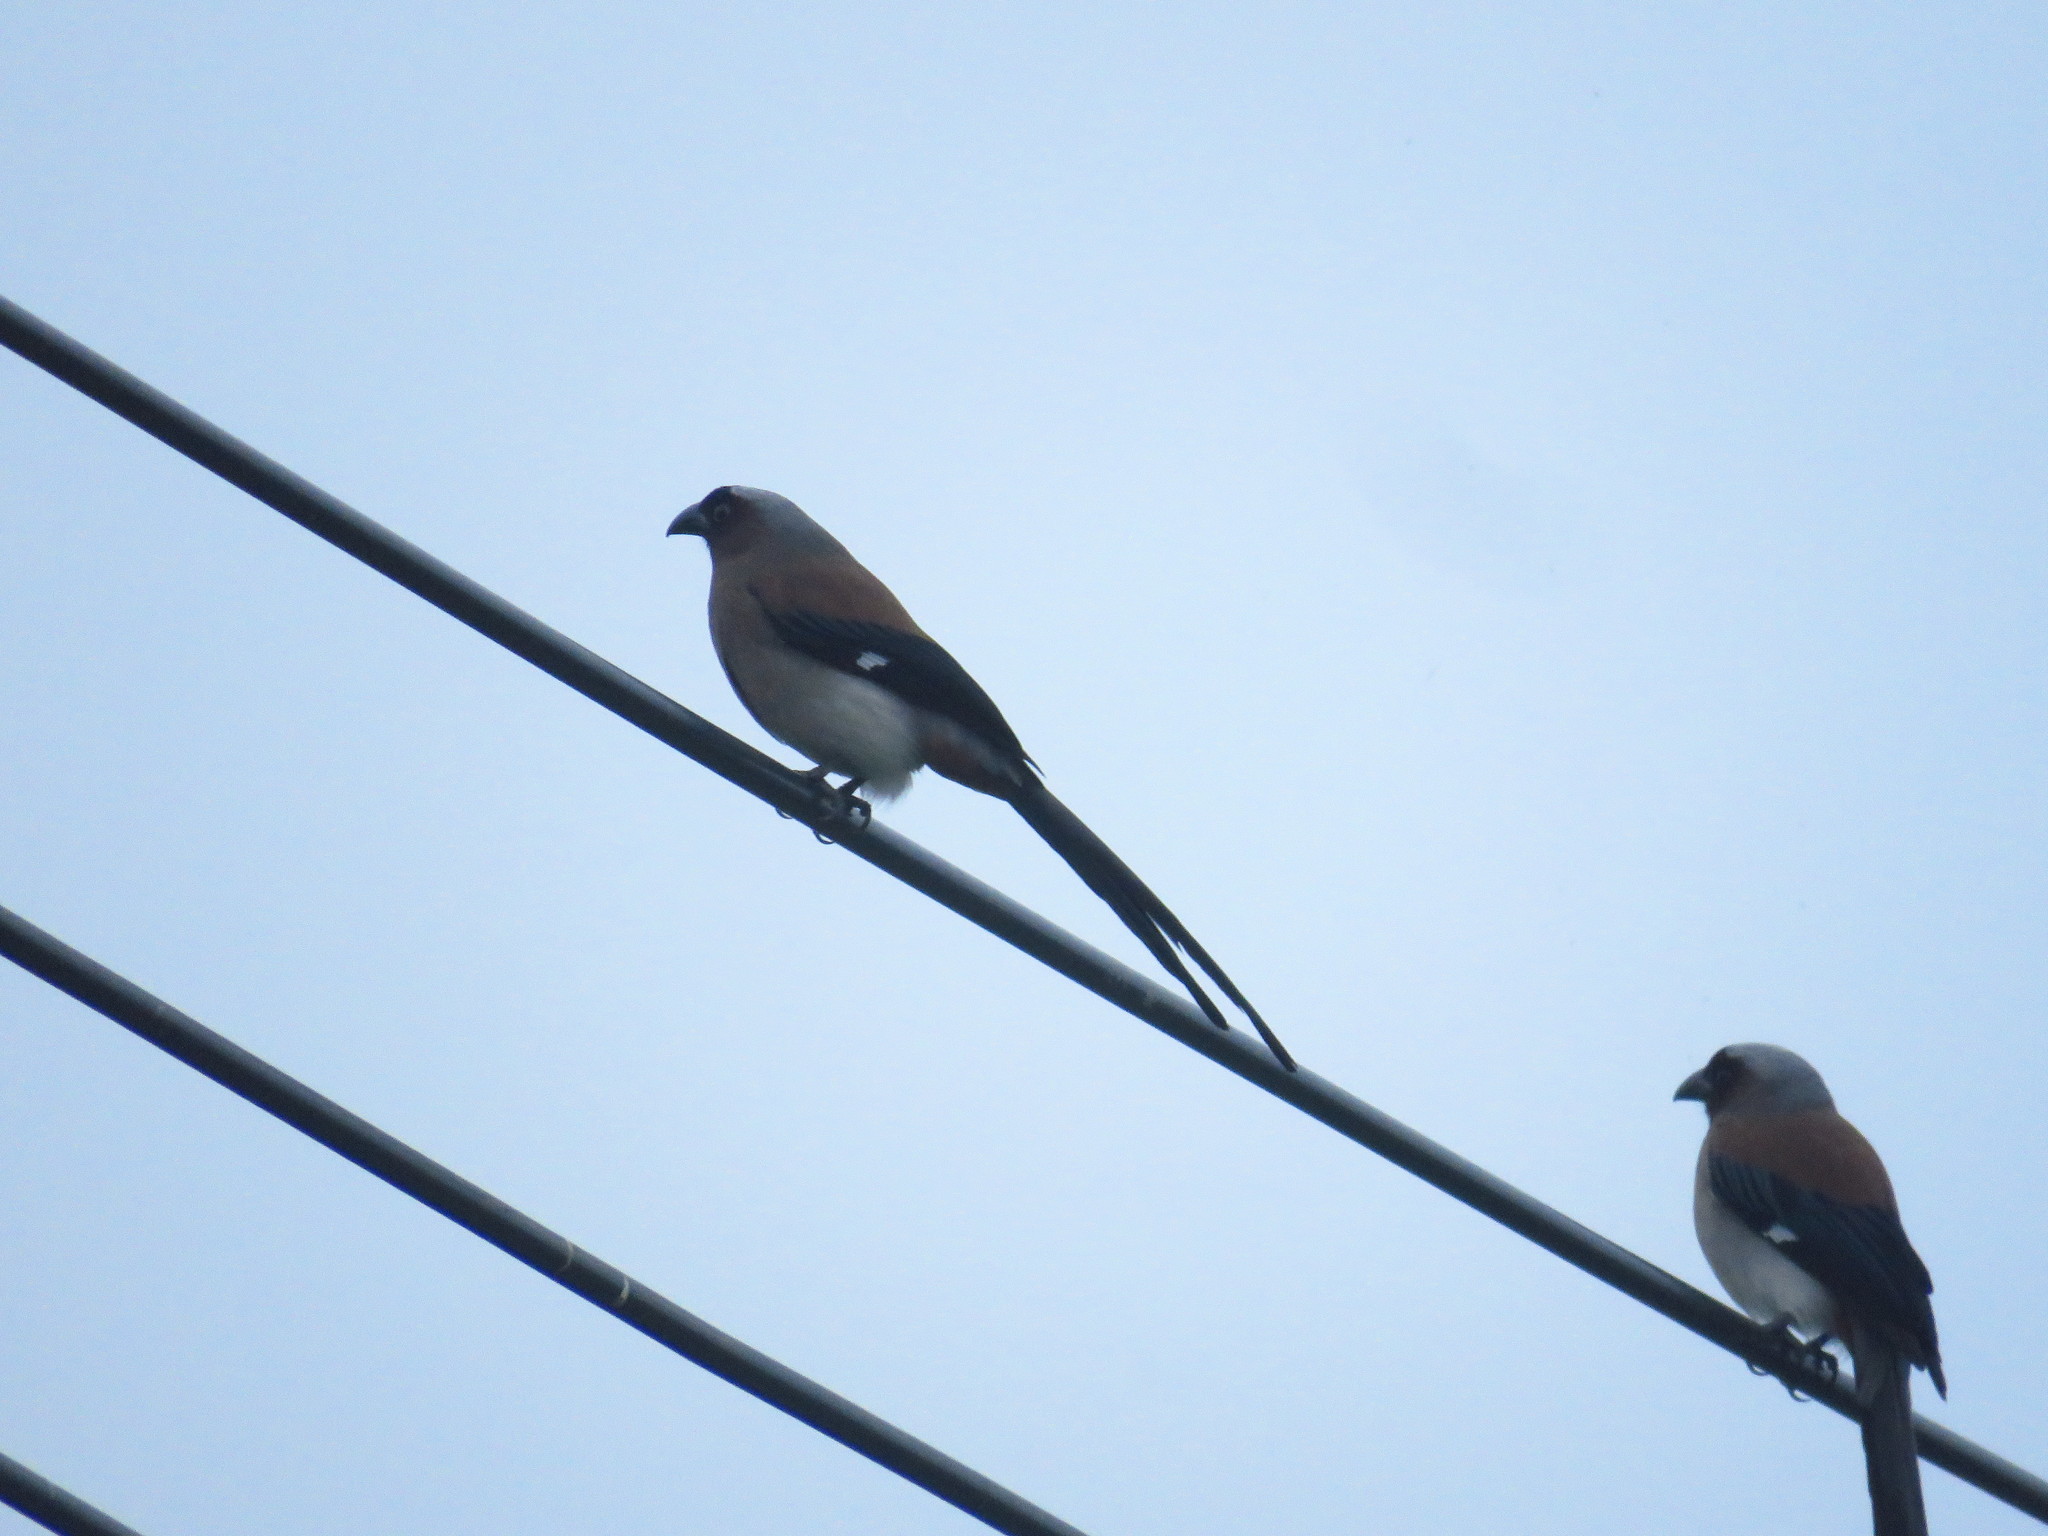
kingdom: Animalia
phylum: Chordata
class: Aves
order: Passeriformes
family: Corvidae
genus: Dendrocitta
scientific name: Dendrocitta formosae
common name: Grey treepie
